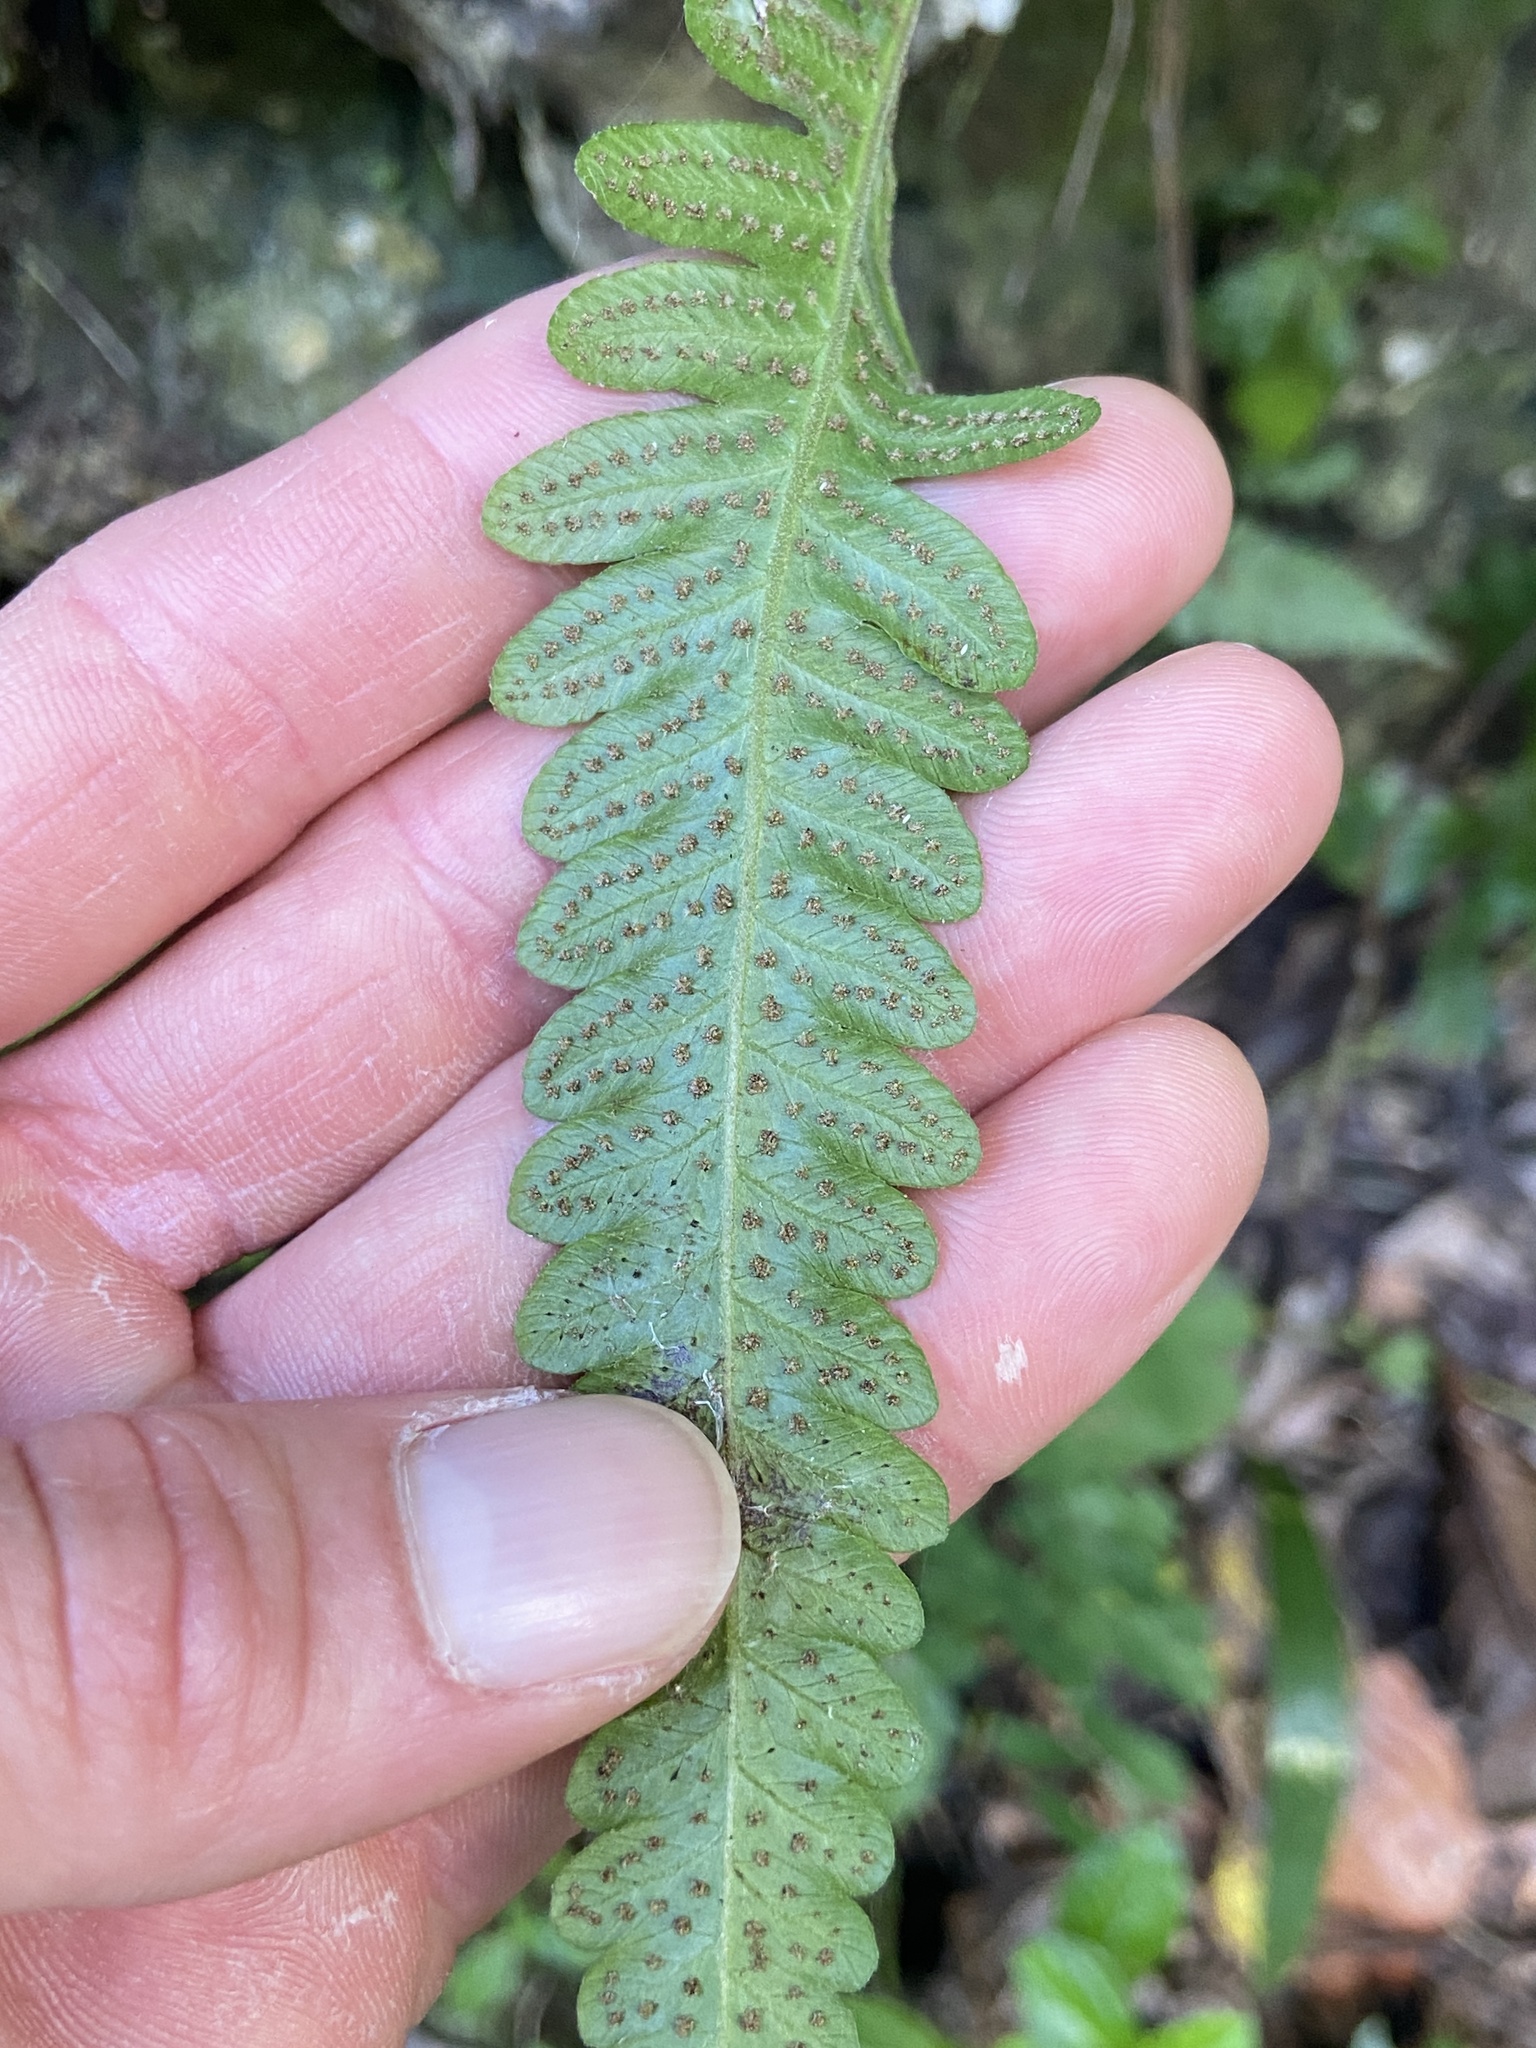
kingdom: Plantae
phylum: Tracheophyta
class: Polypodiopsida
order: Polypodiales
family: Thelypteridaceae
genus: Goniopteris
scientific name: Goniopteris domingensis
